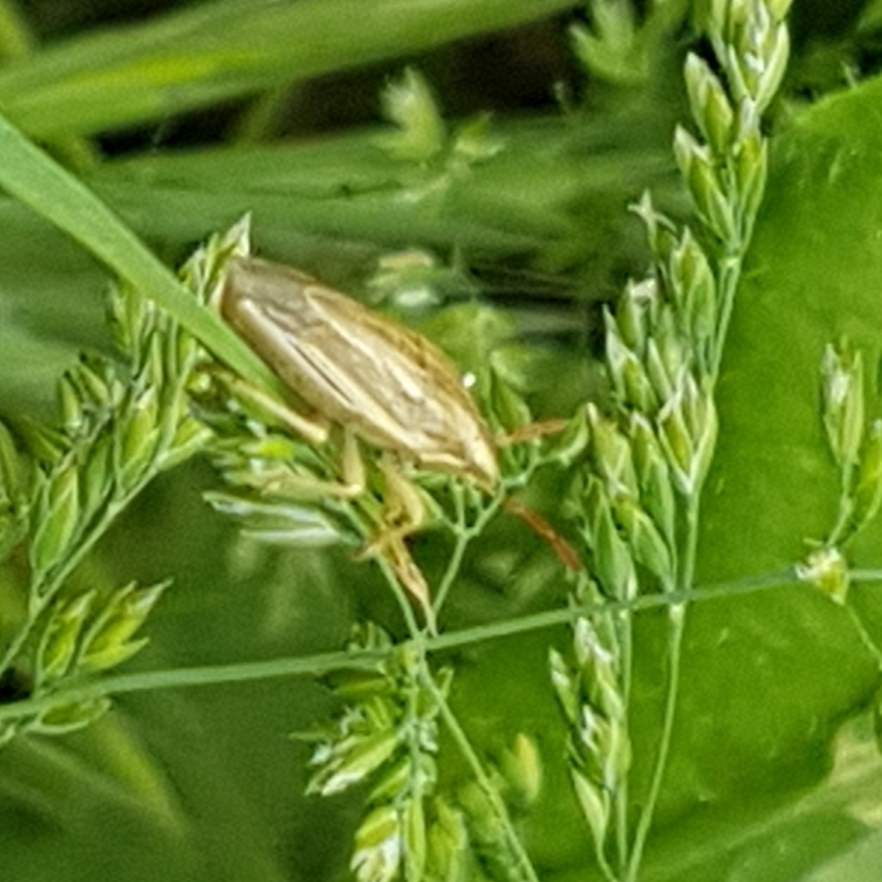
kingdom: Animalia
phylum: Arthropoda
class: Insecta
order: Hemiptera
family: Pentatomidae
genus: Aelia
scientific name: Aelia acuminata
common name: Bishop's mitre
